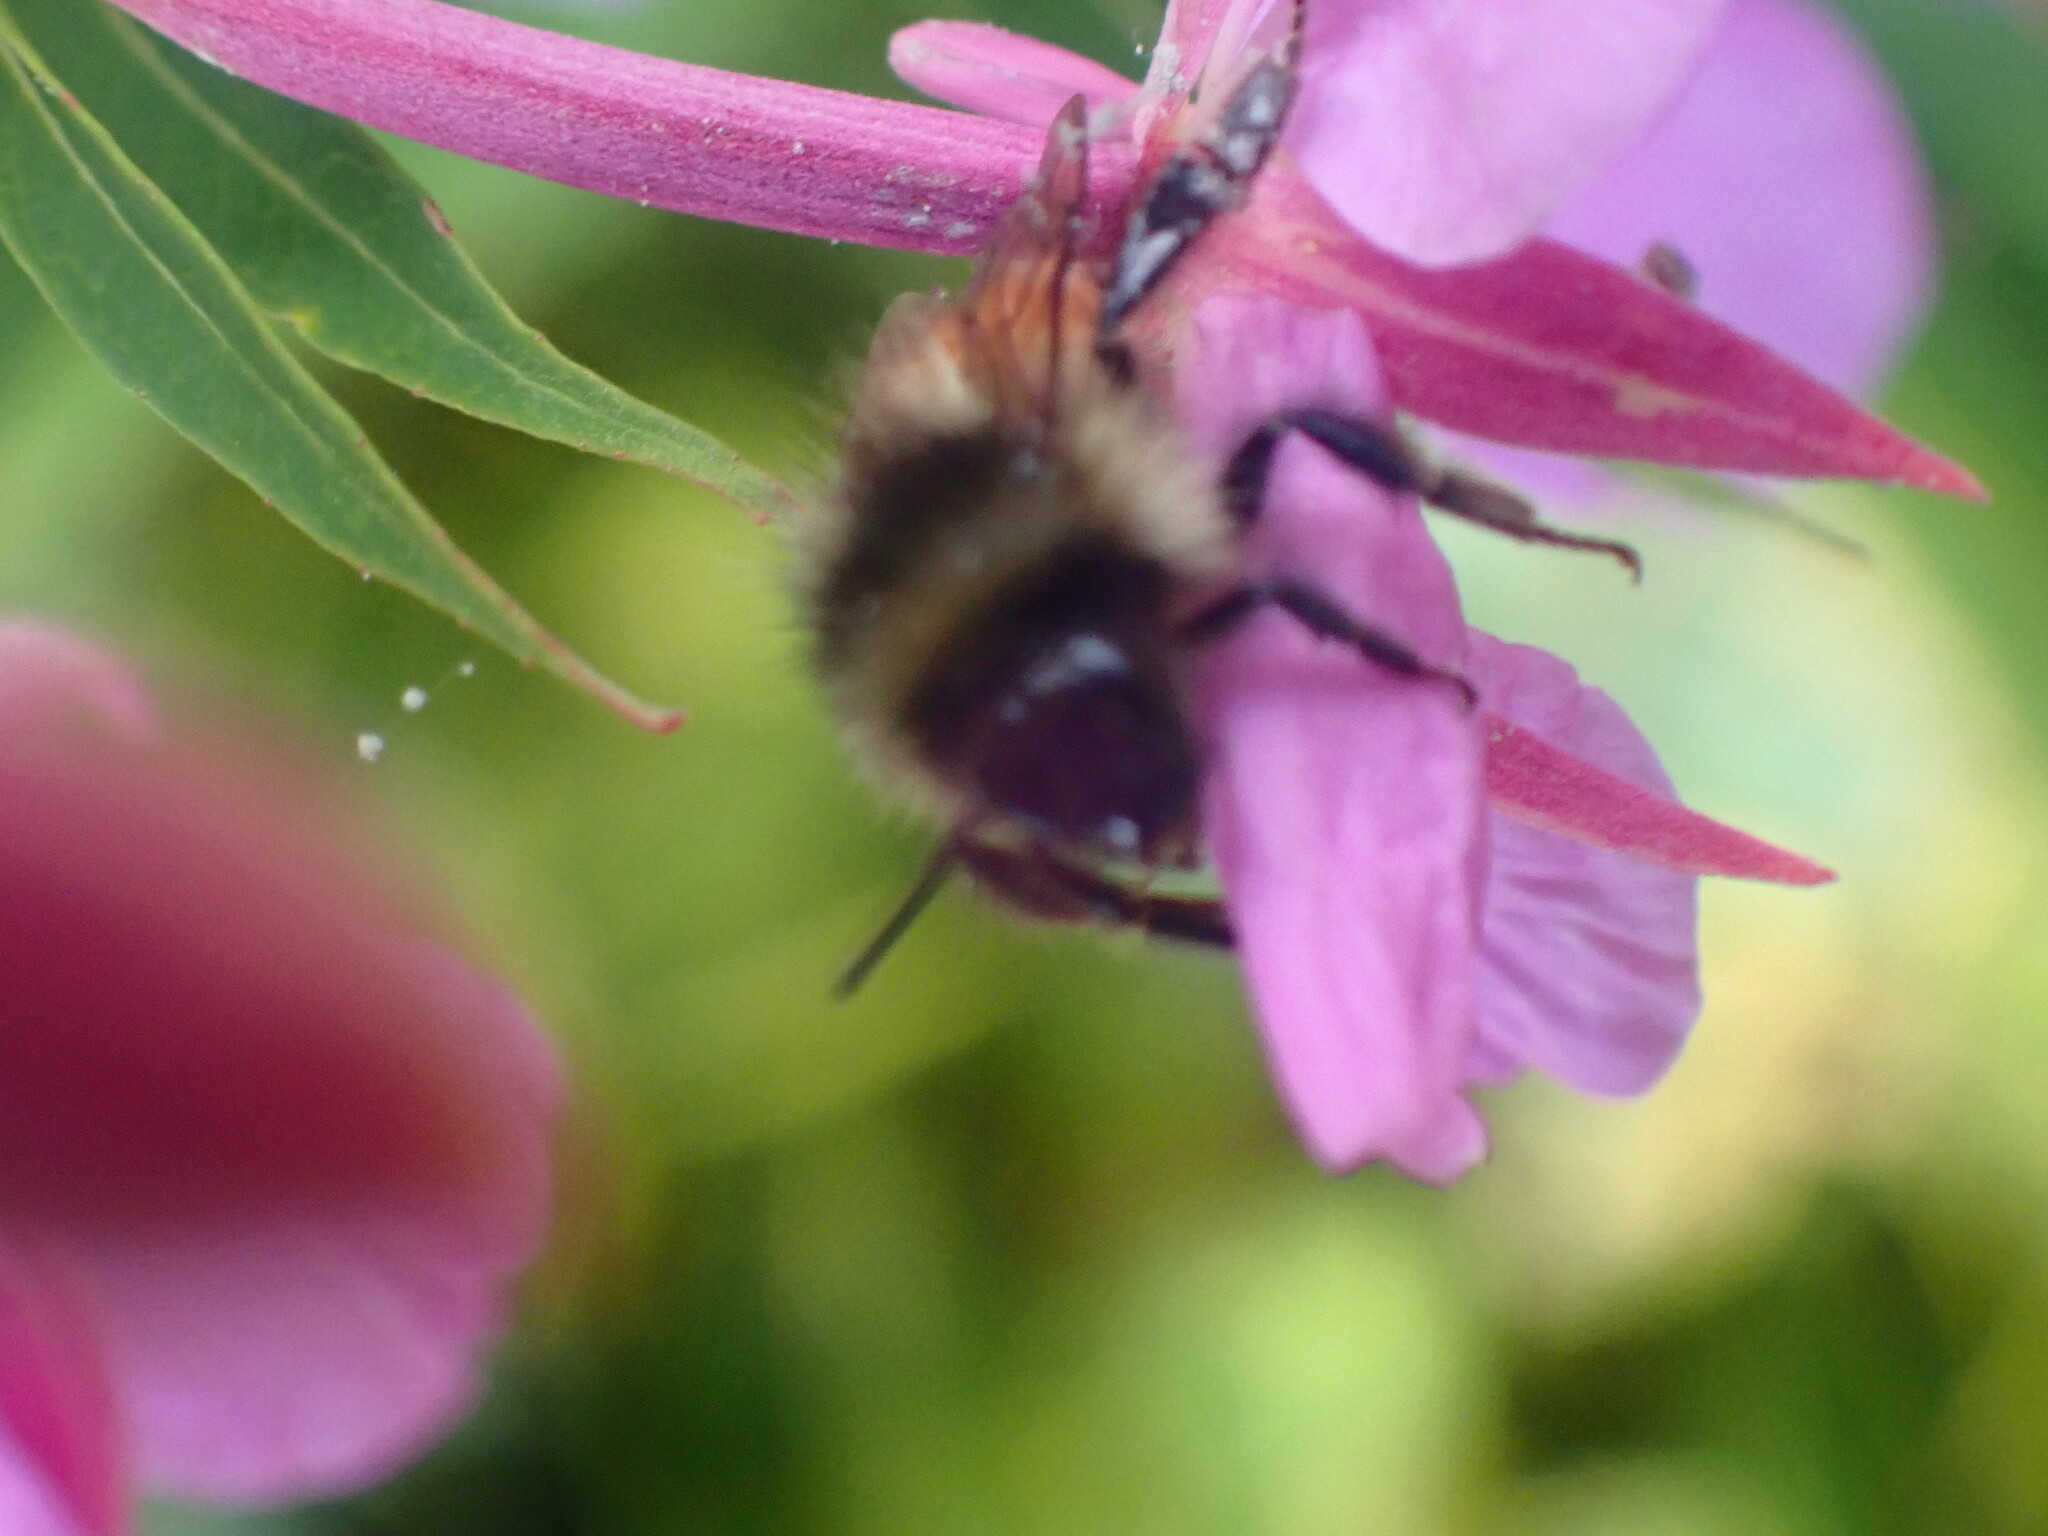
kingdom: Animalia
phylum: Arthropoda
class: Insecta
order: Hymenoptera
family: Apidae
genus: Bombus
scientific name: Bombus melanopygus
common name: Black tail bumble bee
